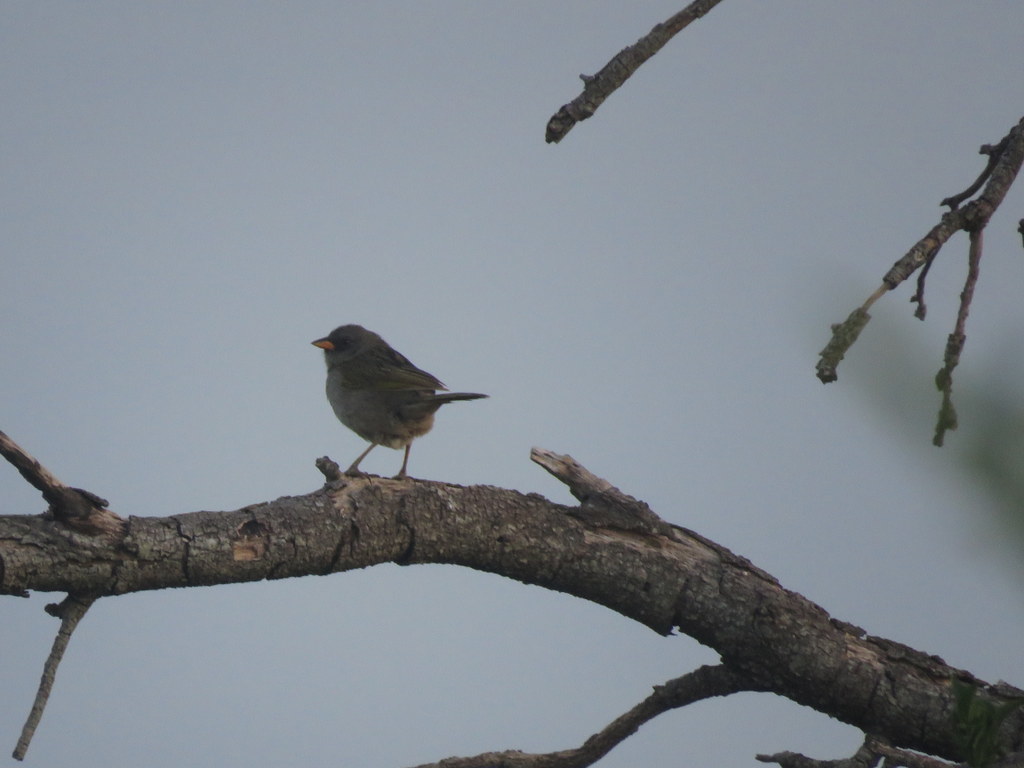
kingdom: Animalia
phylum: Chordata
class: Aves
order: Passeriformes
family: Thraupidae
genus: Embernagra
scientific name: Embernagra platensis
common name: Pampa finch
